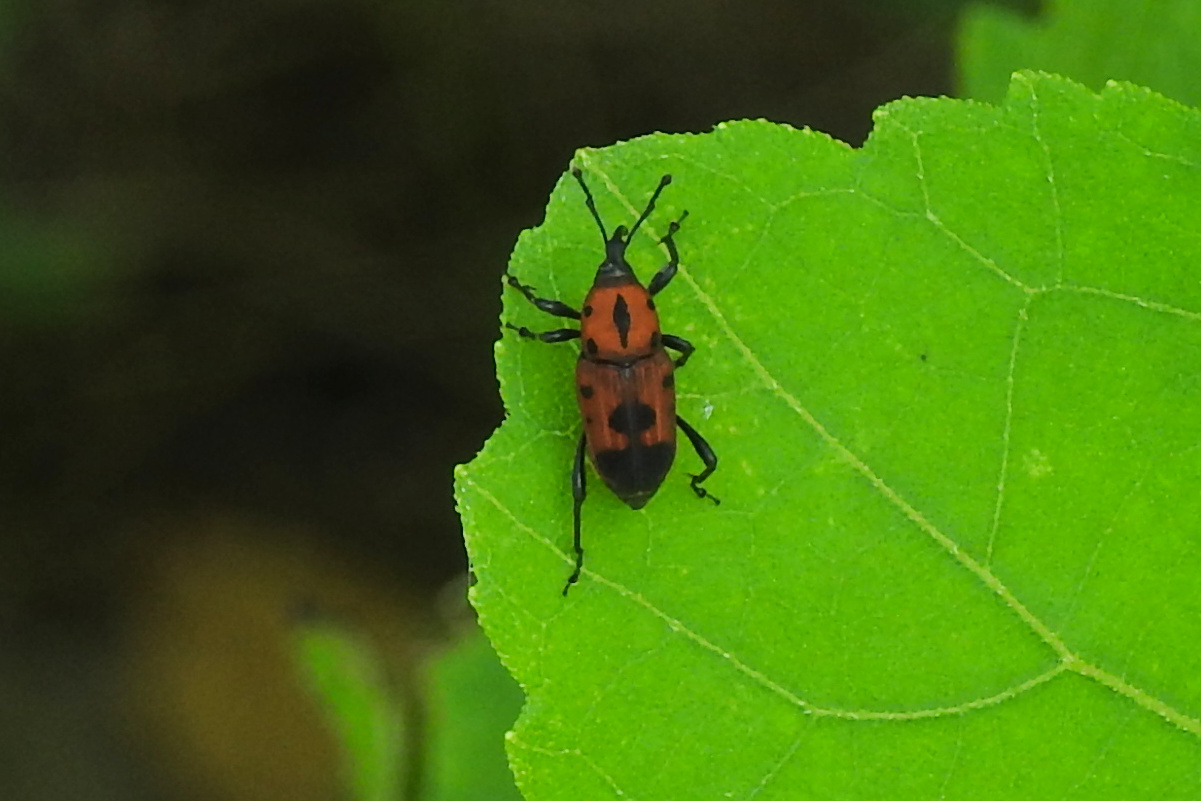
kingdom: Animalia
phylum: Arthropoda
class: Insecta
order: Coleoptera
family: Dryophthoridae
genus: Rhodobaenus
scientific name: Rhodobaenus quinquepunctatus
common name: Cocklebur weevil
